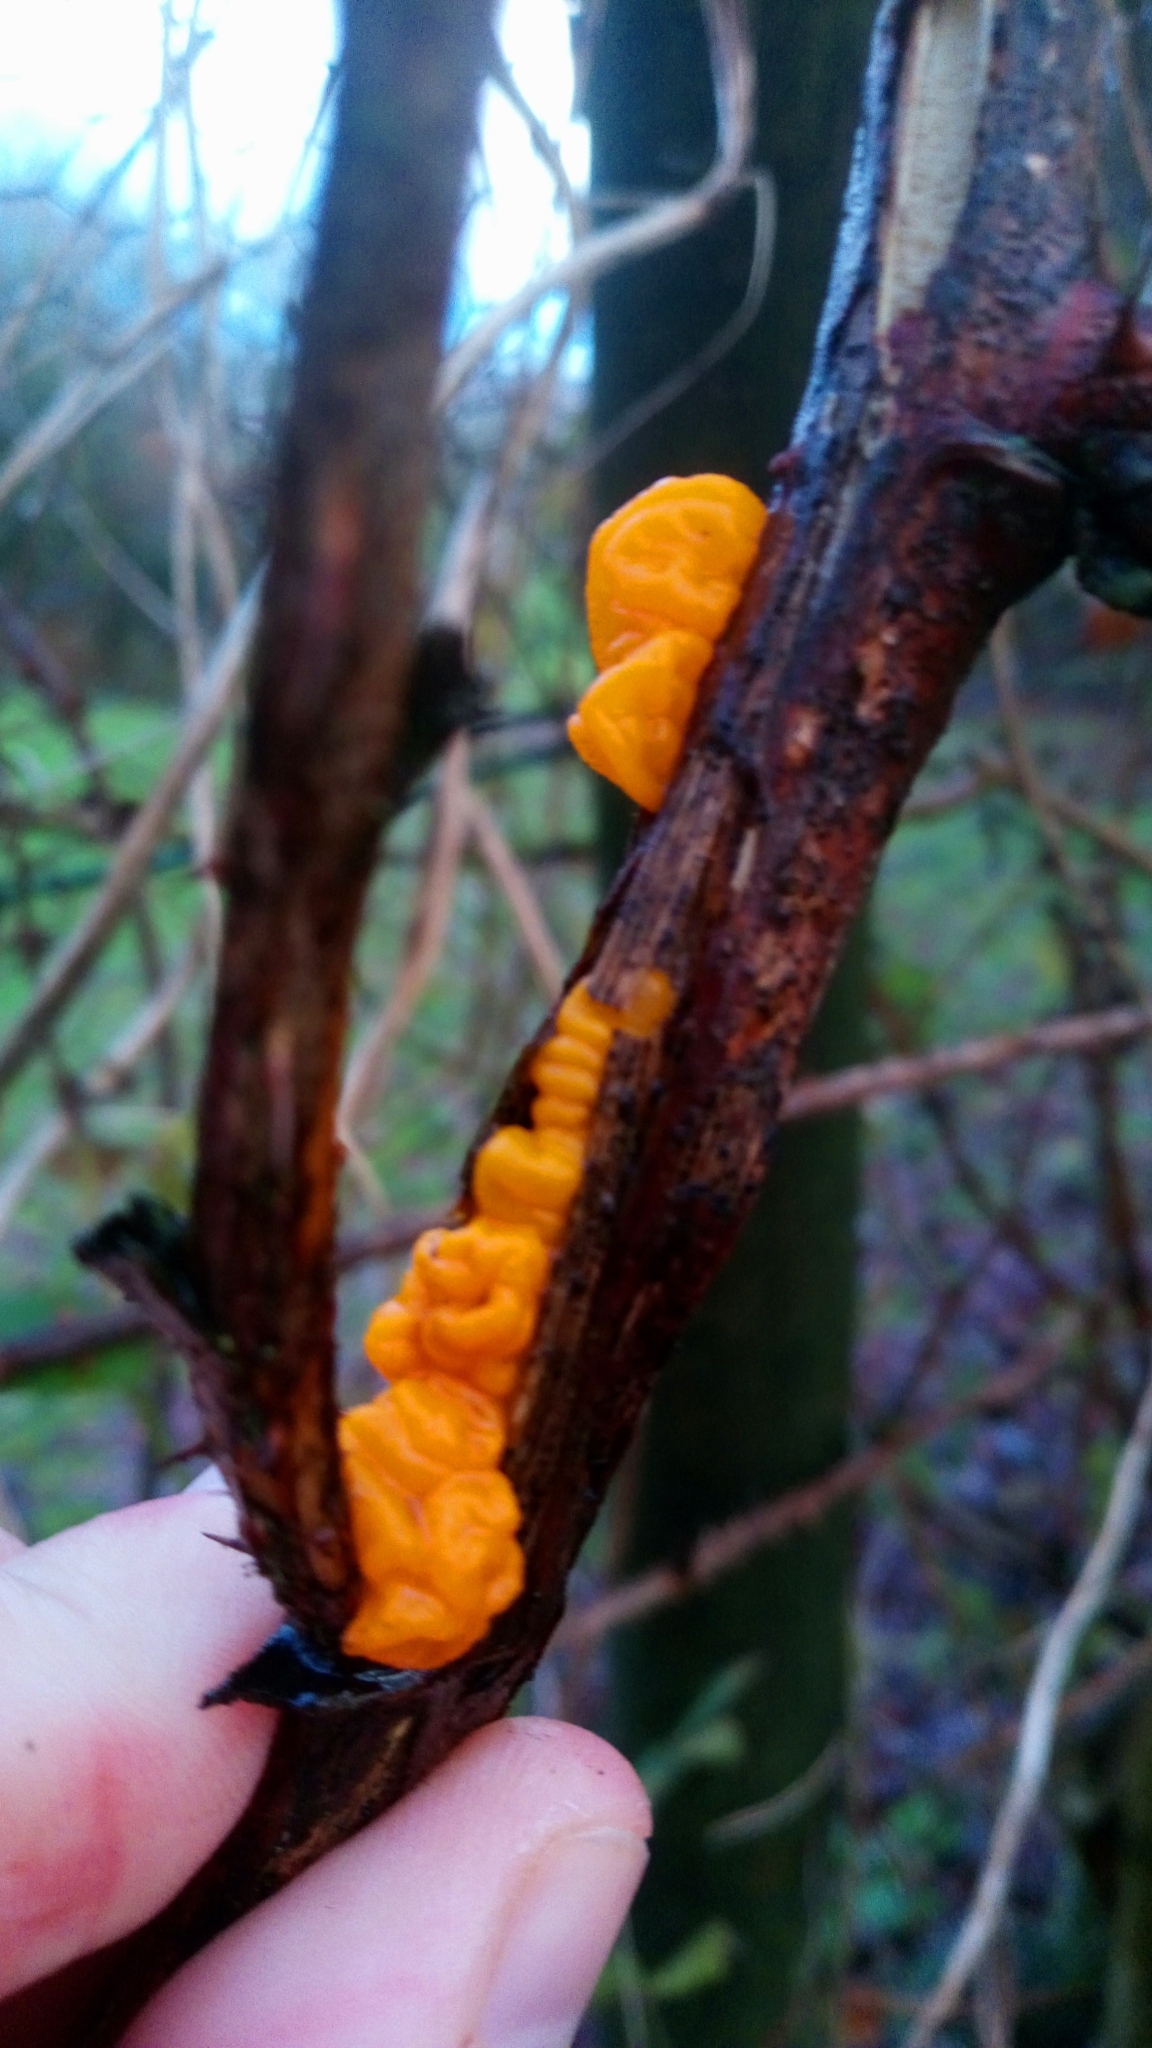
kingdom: Fungi
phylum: Basidiomycota
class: Tremellomycetes
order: Tremellales
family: Tremellaceae
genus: Tremella
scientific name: Tremella mesenterica
